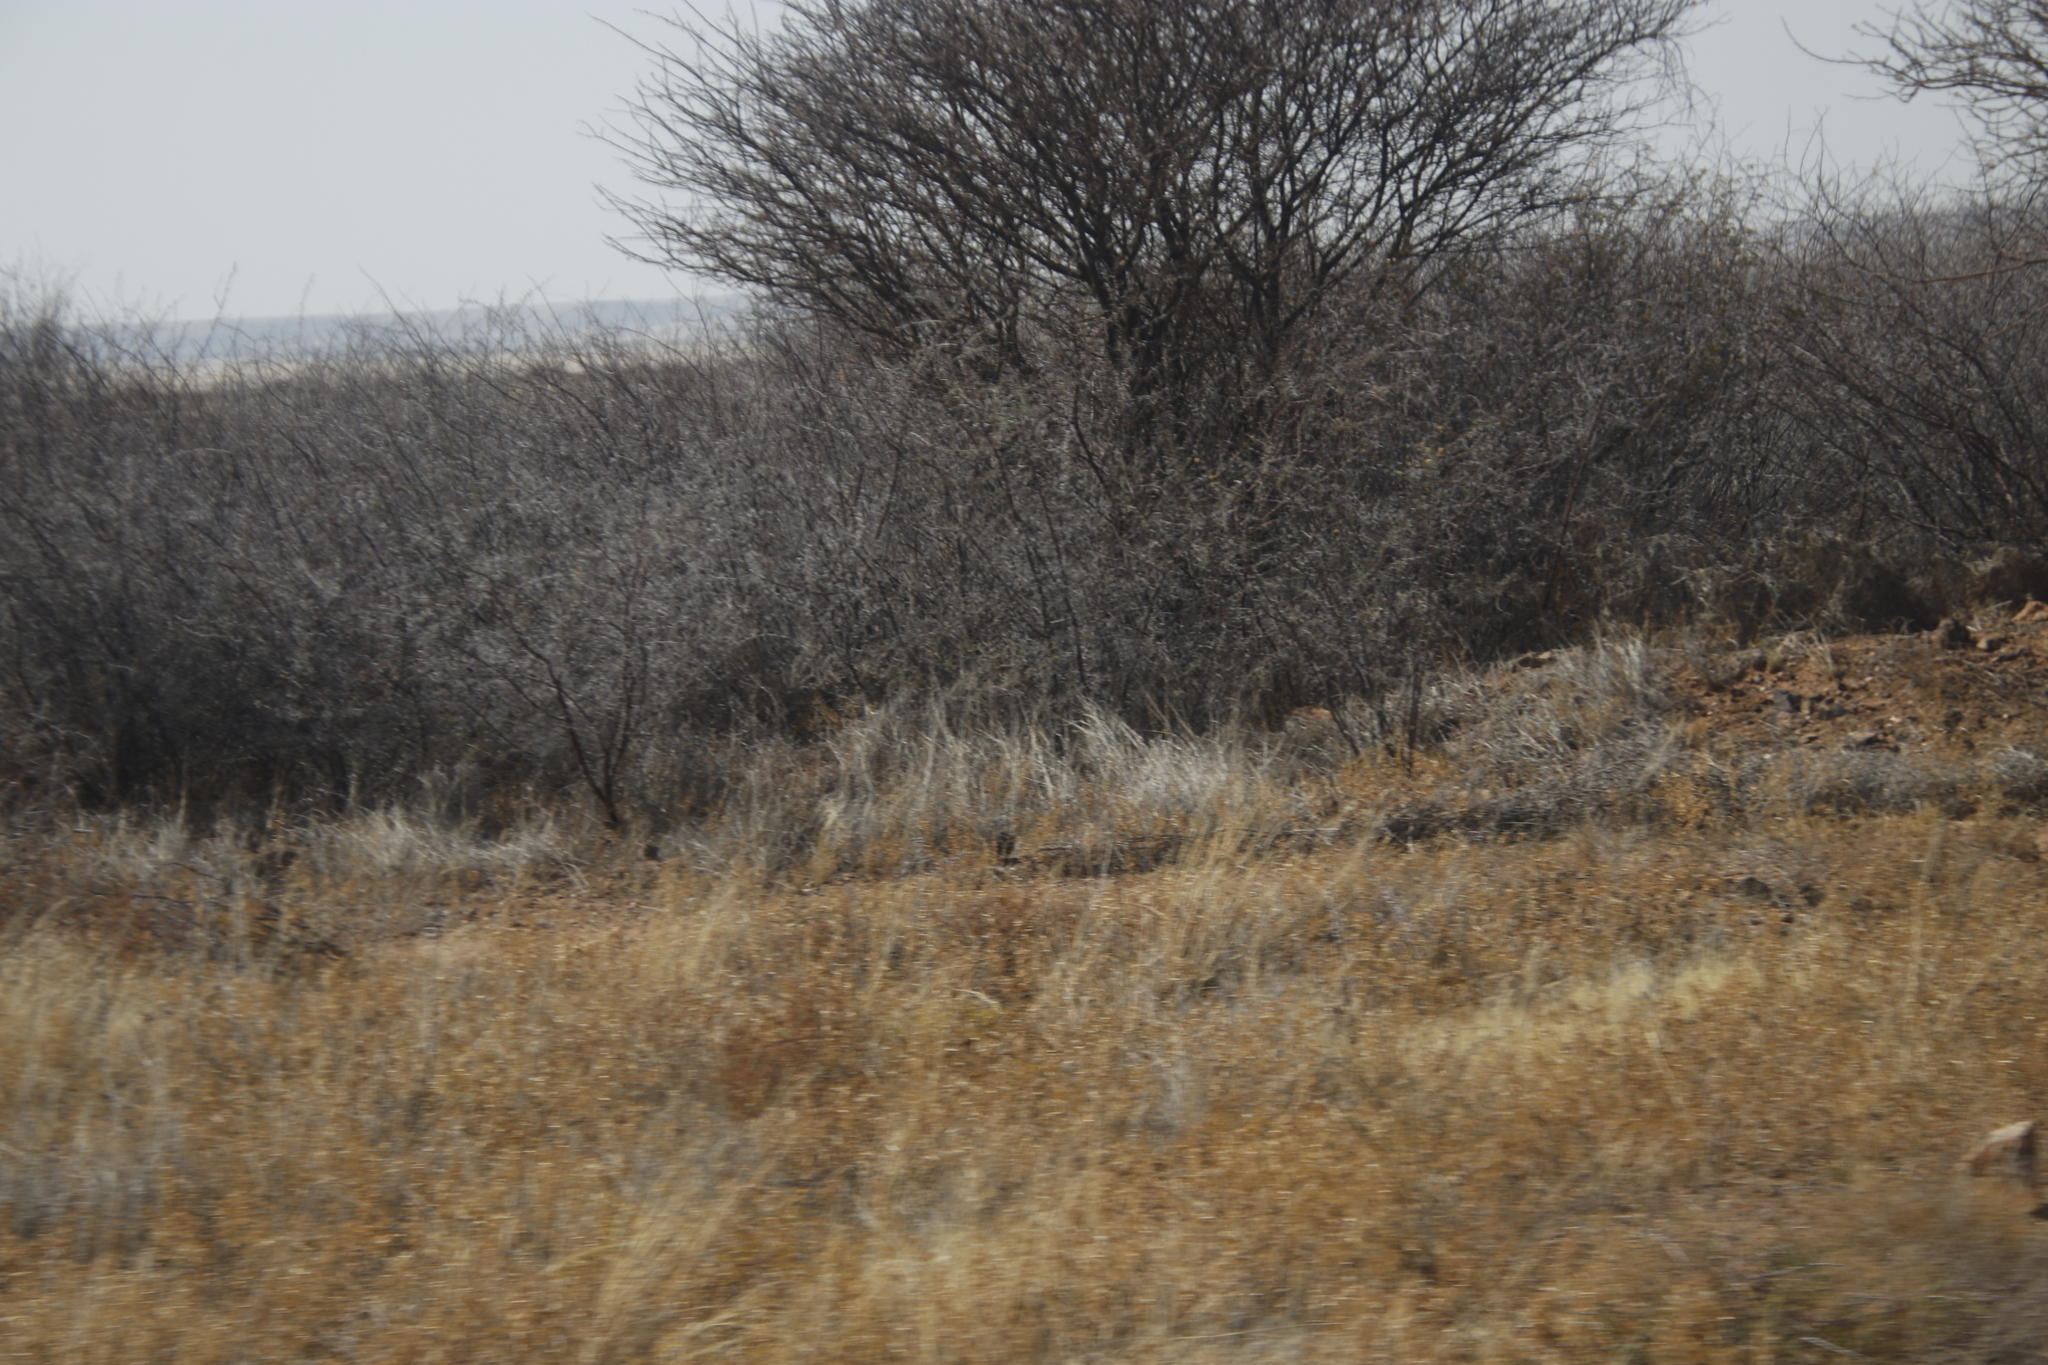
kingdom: Plantae
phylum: Tracheophyta
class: Magnoliopsida
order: Fabales
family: Fabaceae
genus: Vachellia
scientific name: Vachellia nebrownii
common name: Water acacia
